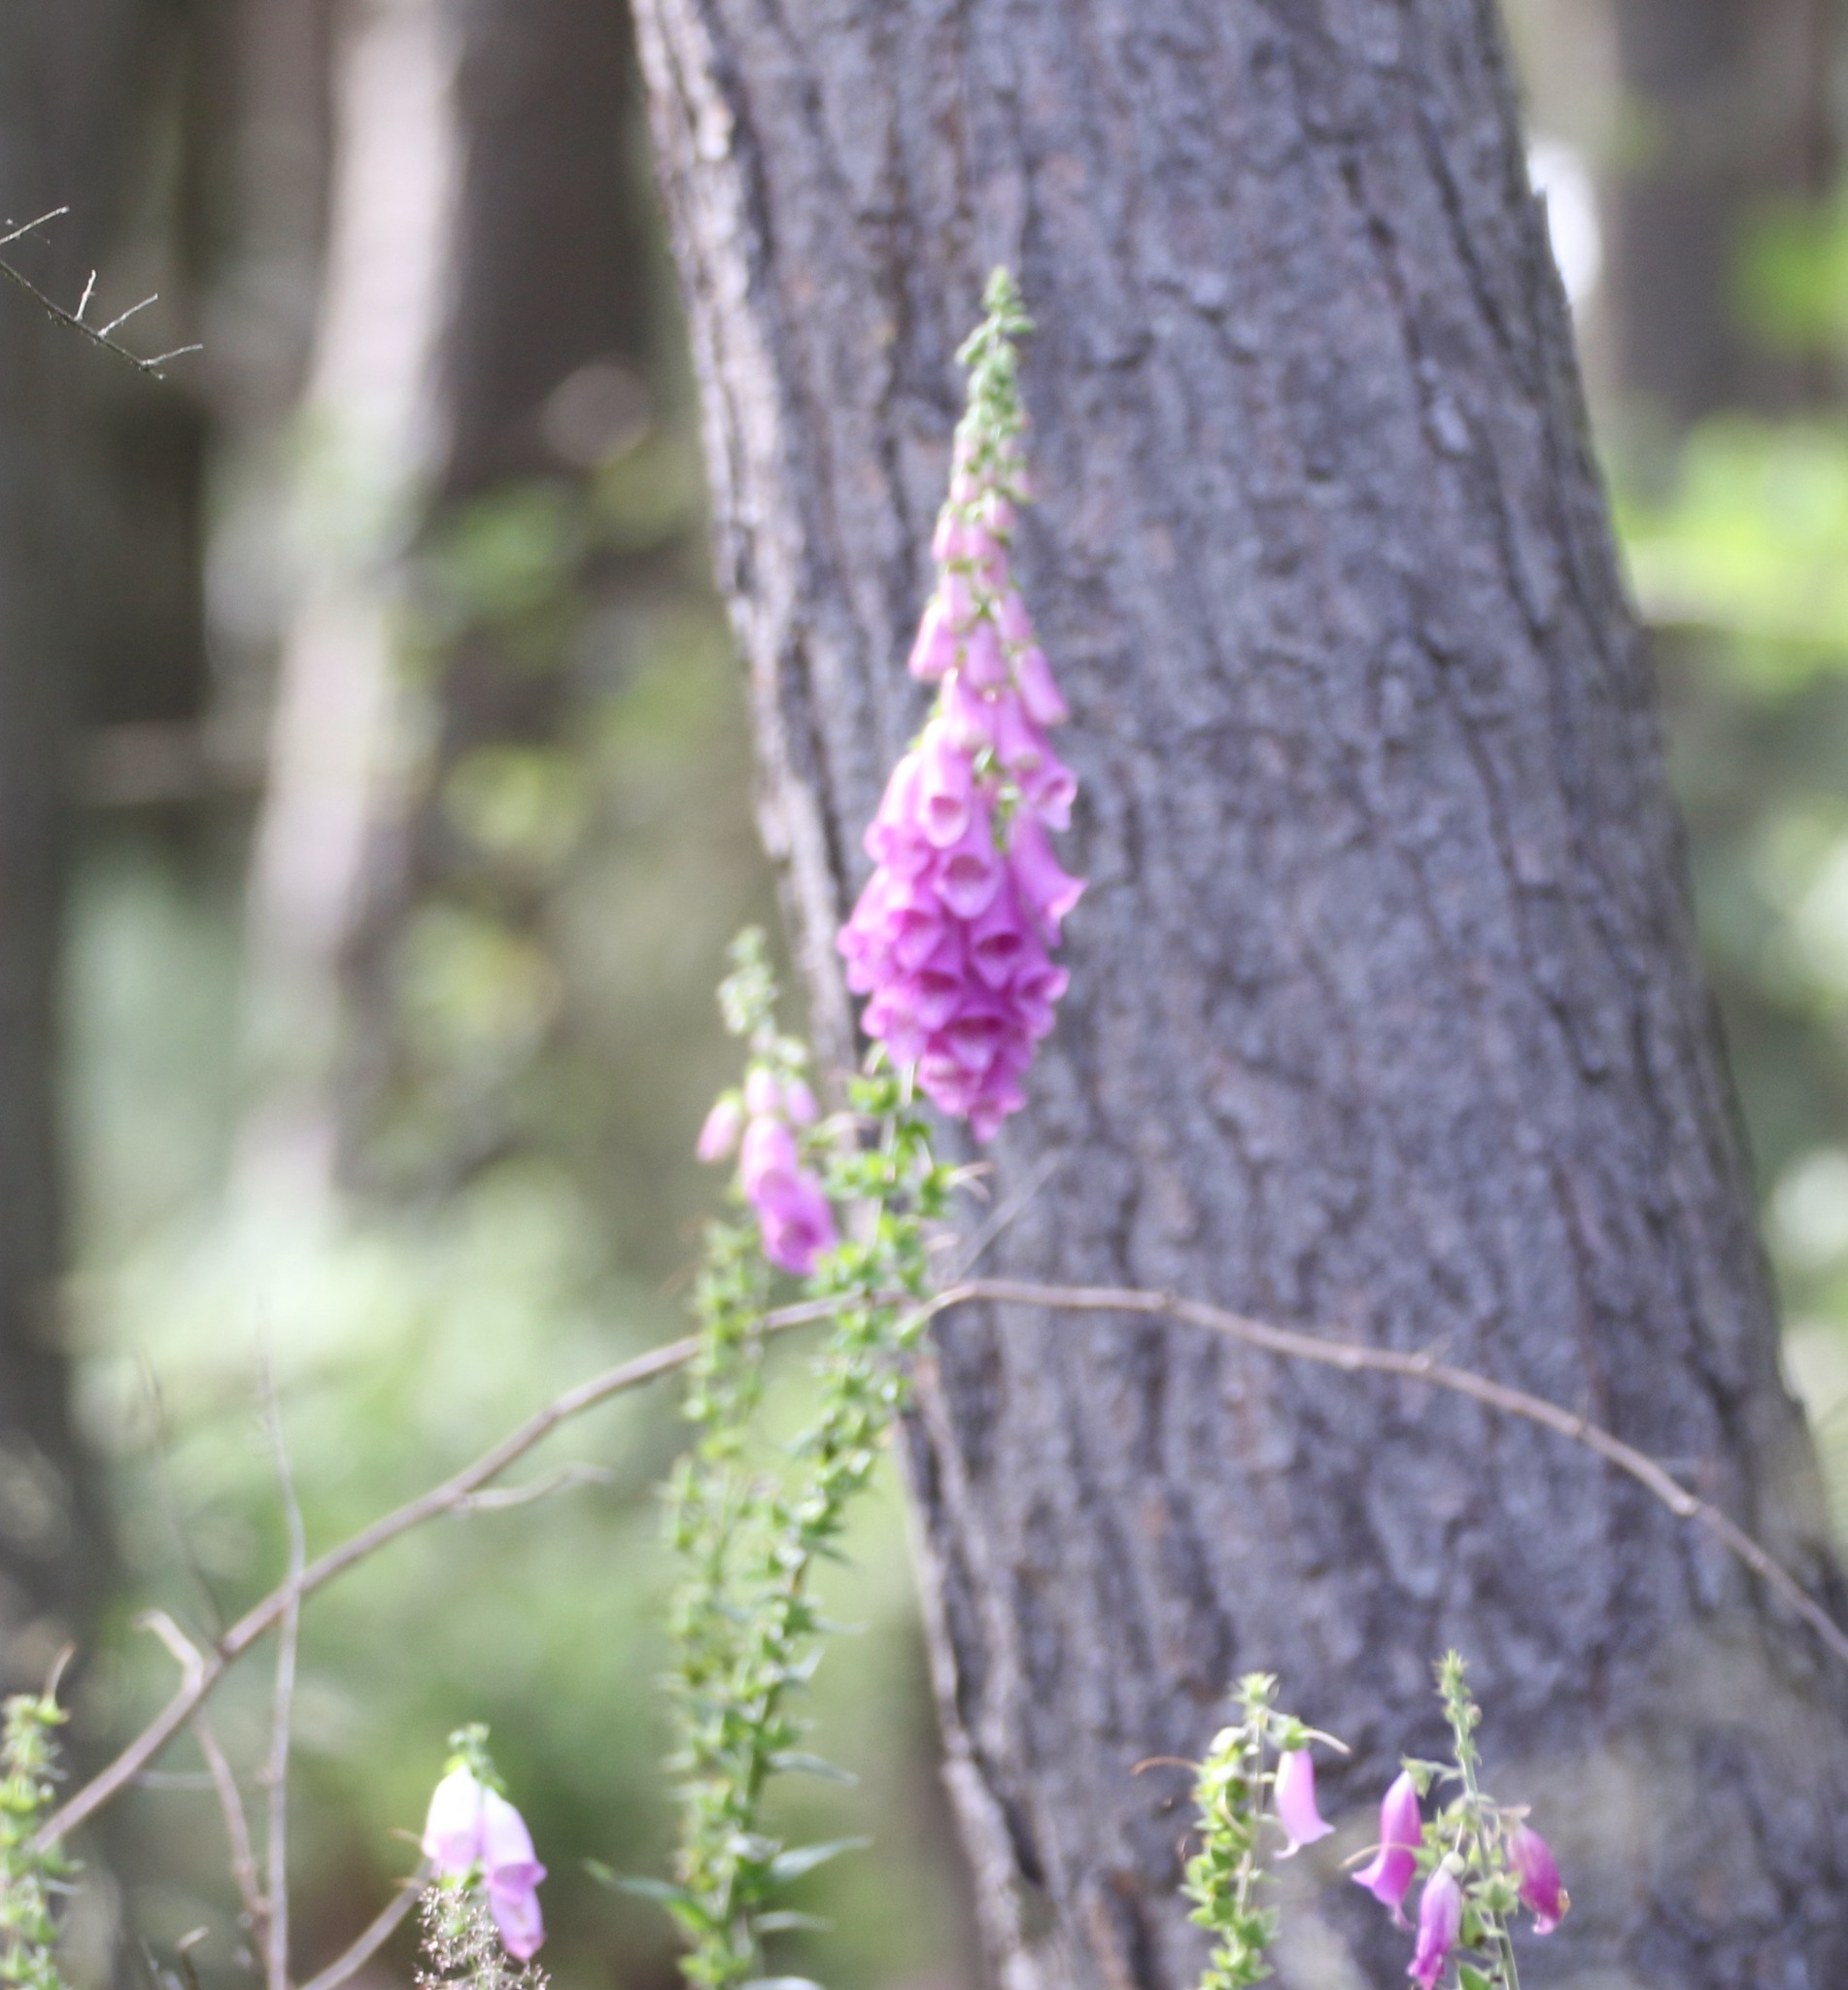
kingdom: Plantae
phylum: Tracheophyta
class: Magnoliopsida
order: Lamiales
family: Plantaginaceae
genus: Digitalis
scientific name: Digitalis purpurea
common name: Foxglove
